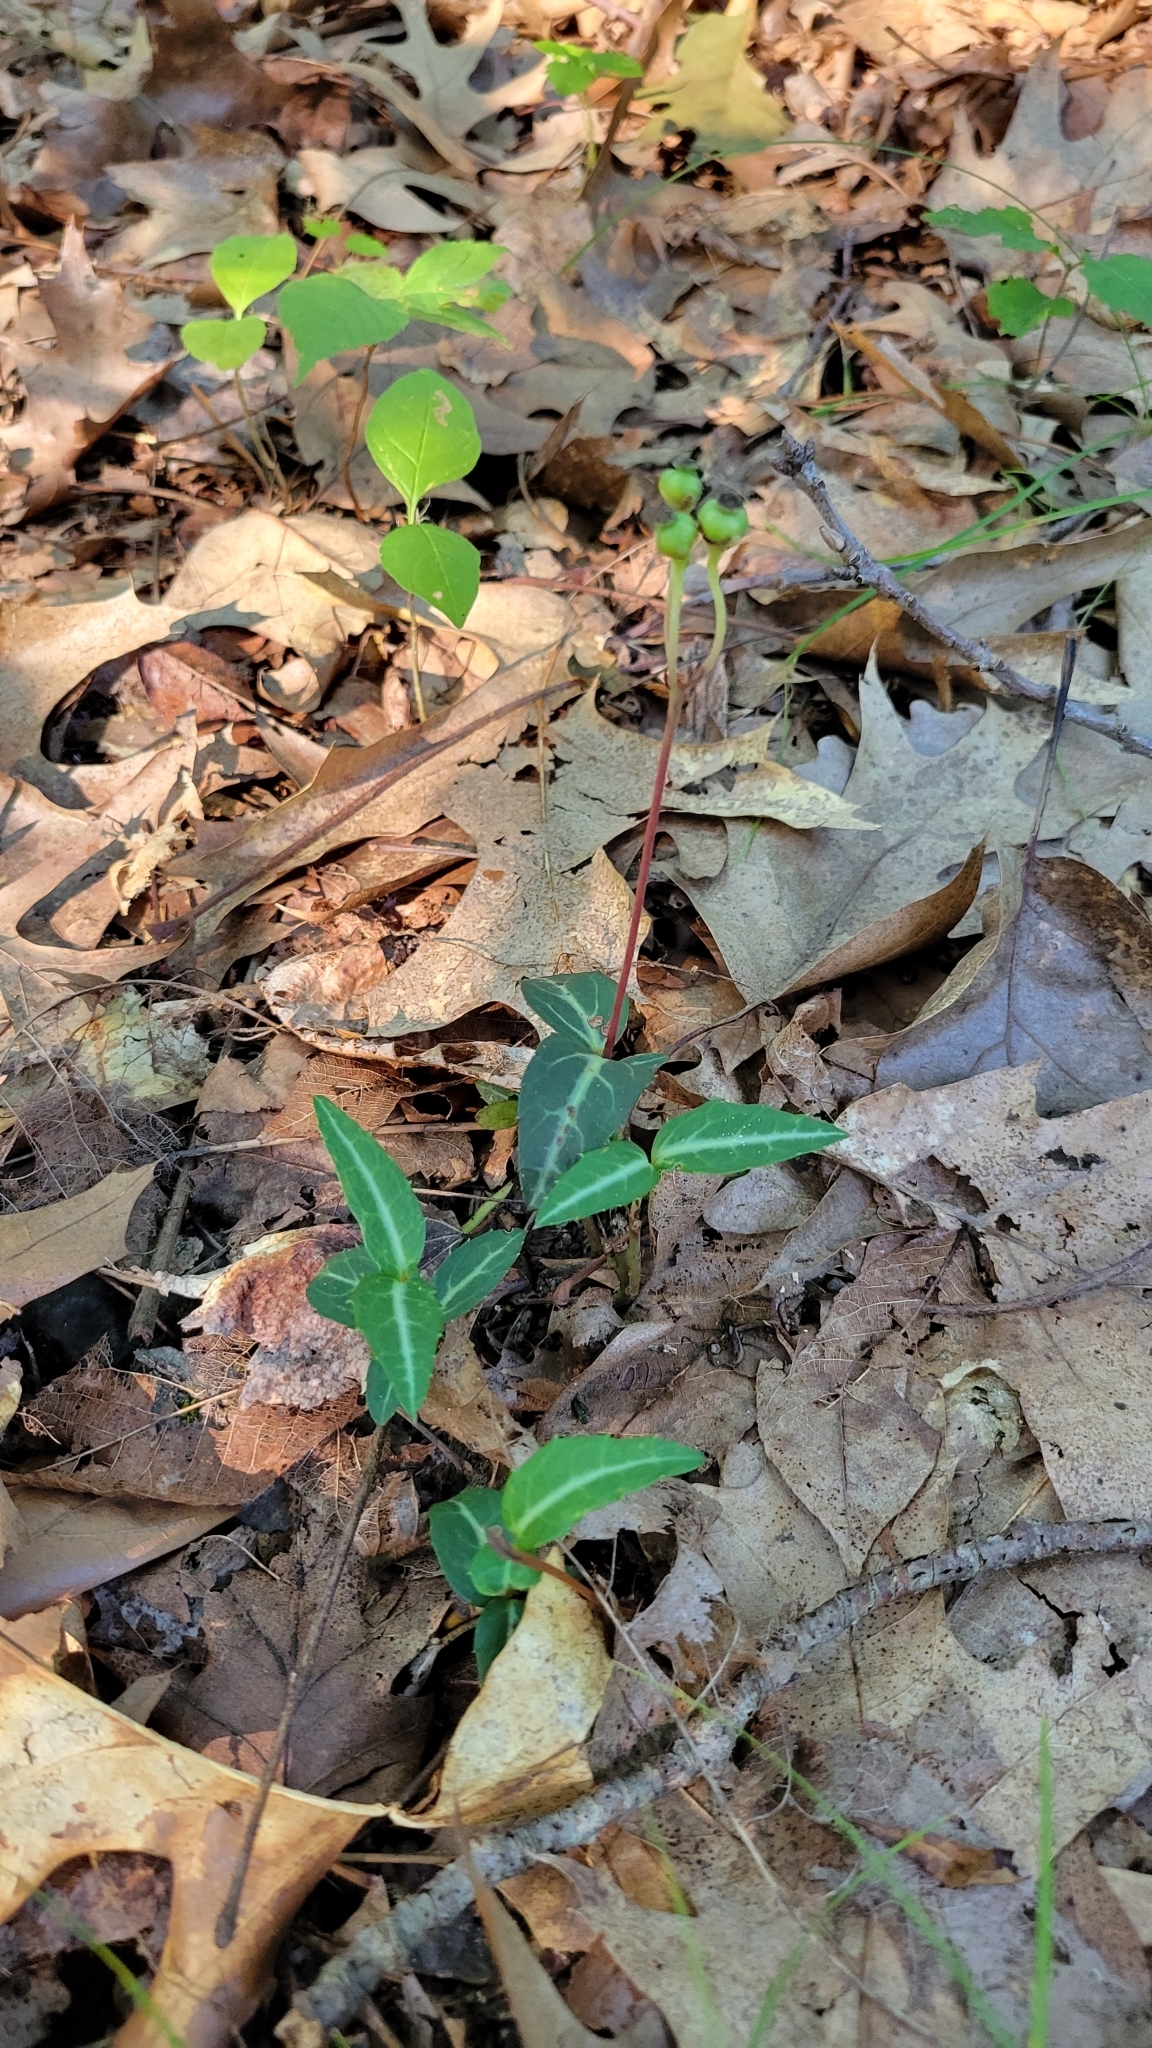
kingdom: Plantae
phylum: Tracheophyta
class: Magnoliopsida
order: Ericales
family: Ericaceae
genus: Chimaphila
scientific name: Chimaphila maculata
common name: Spotted pipsissewa
